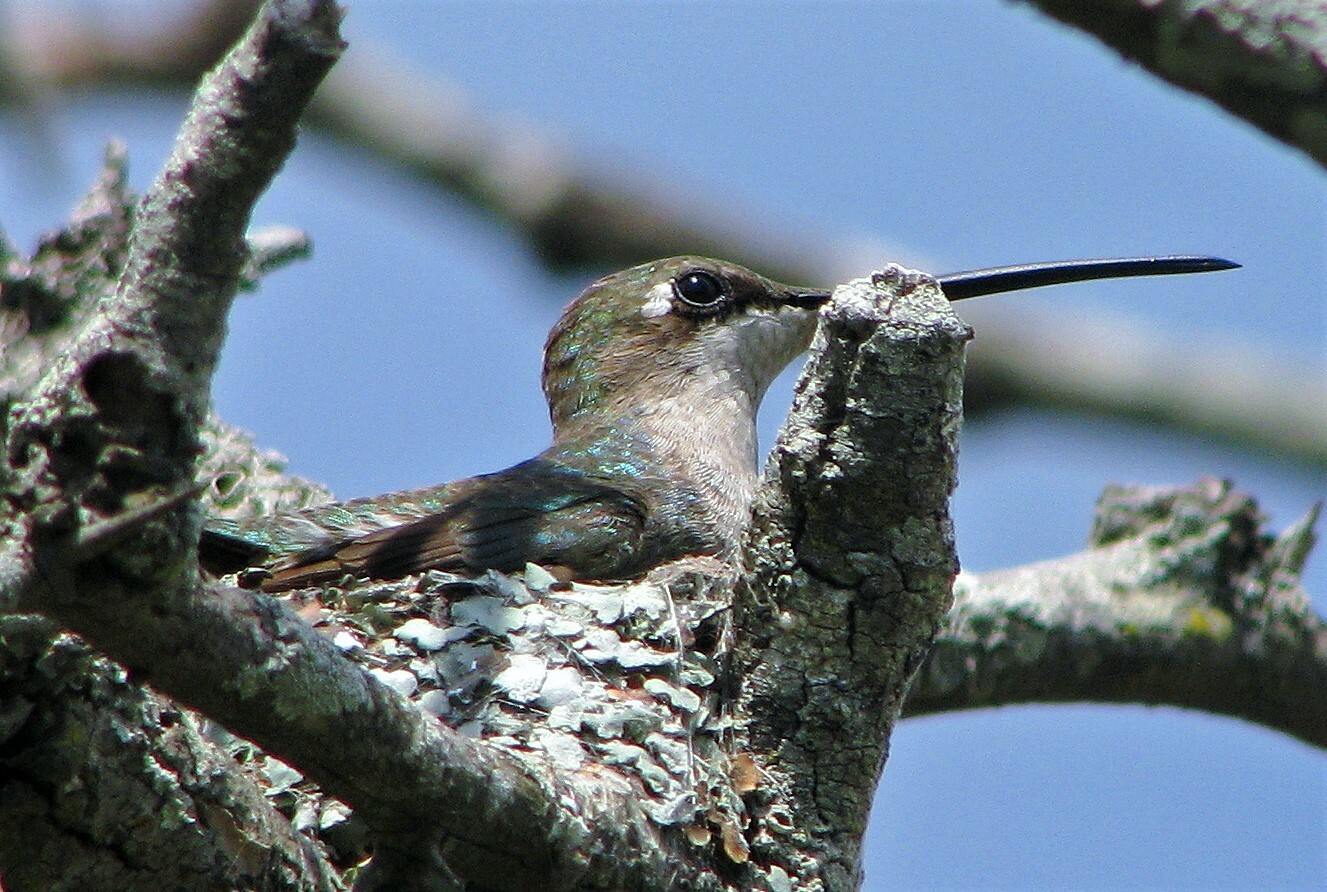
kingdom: Animalia
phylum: Chordata
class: Aves
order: Apodiformes
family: Trochilidae
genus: Heliomaster
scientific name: Heliomaster furcifer
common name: Blue-tufted starthroat
